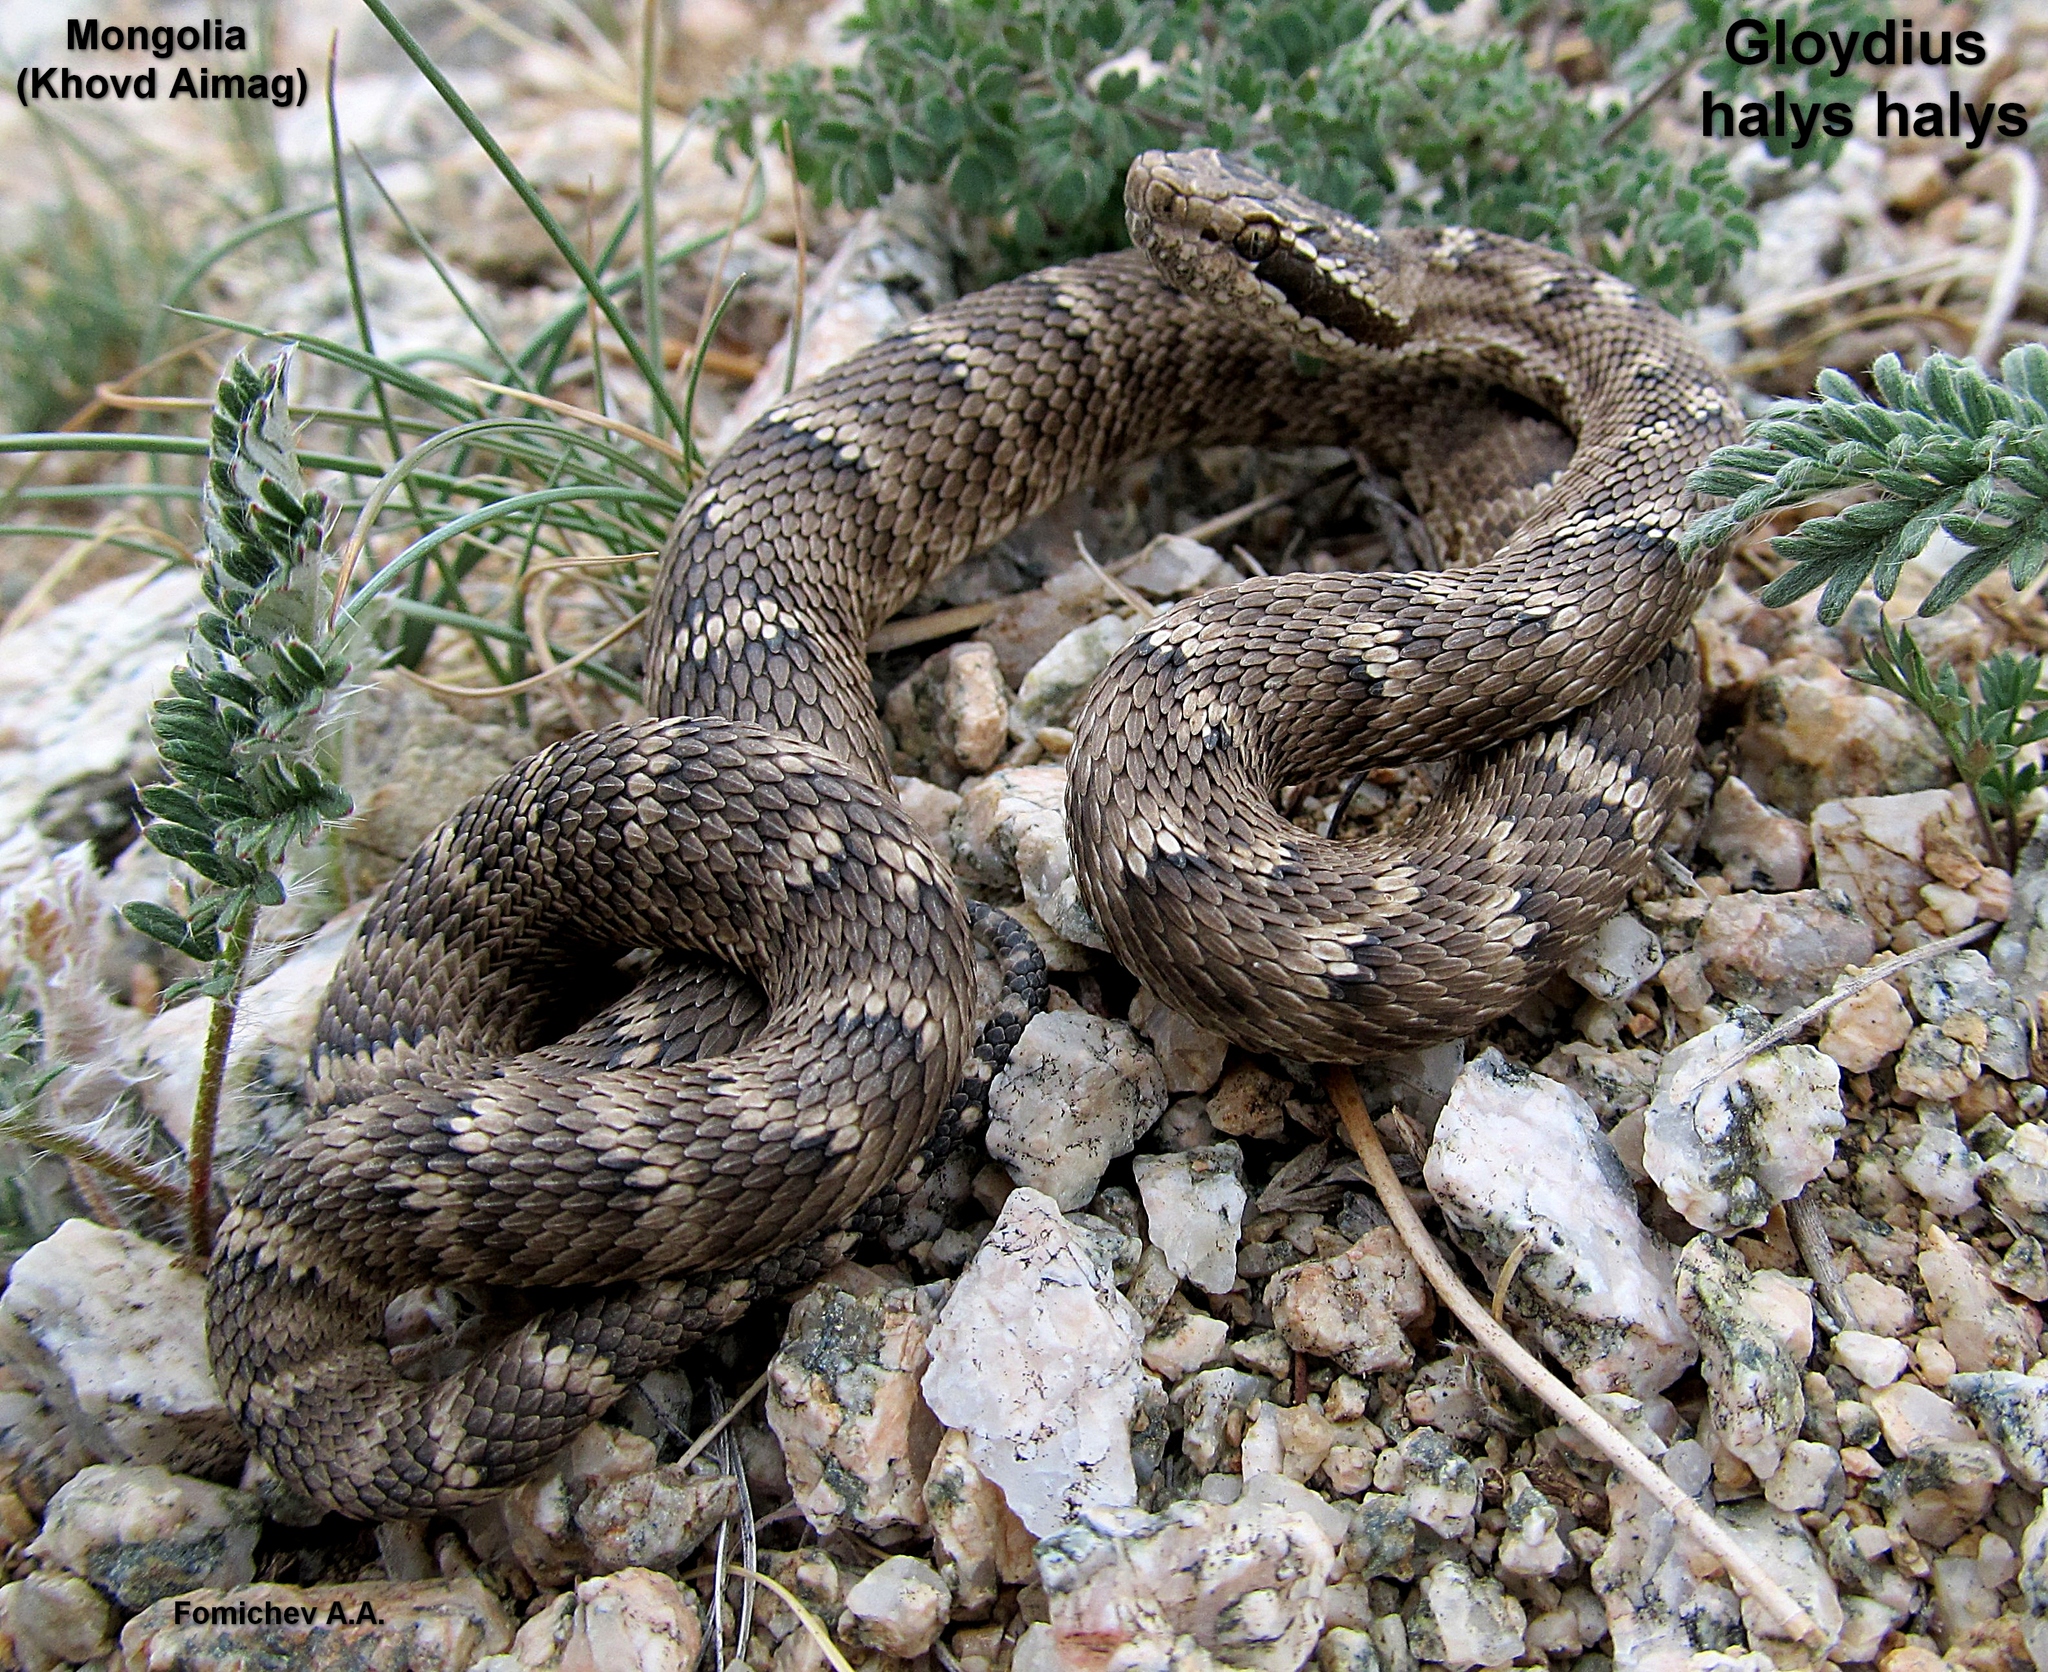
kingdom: Animalia
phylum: Chordata
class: Squamata
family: Viperidae
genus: Gloydius
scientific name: Gloydius halys
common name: Halys pit viper
